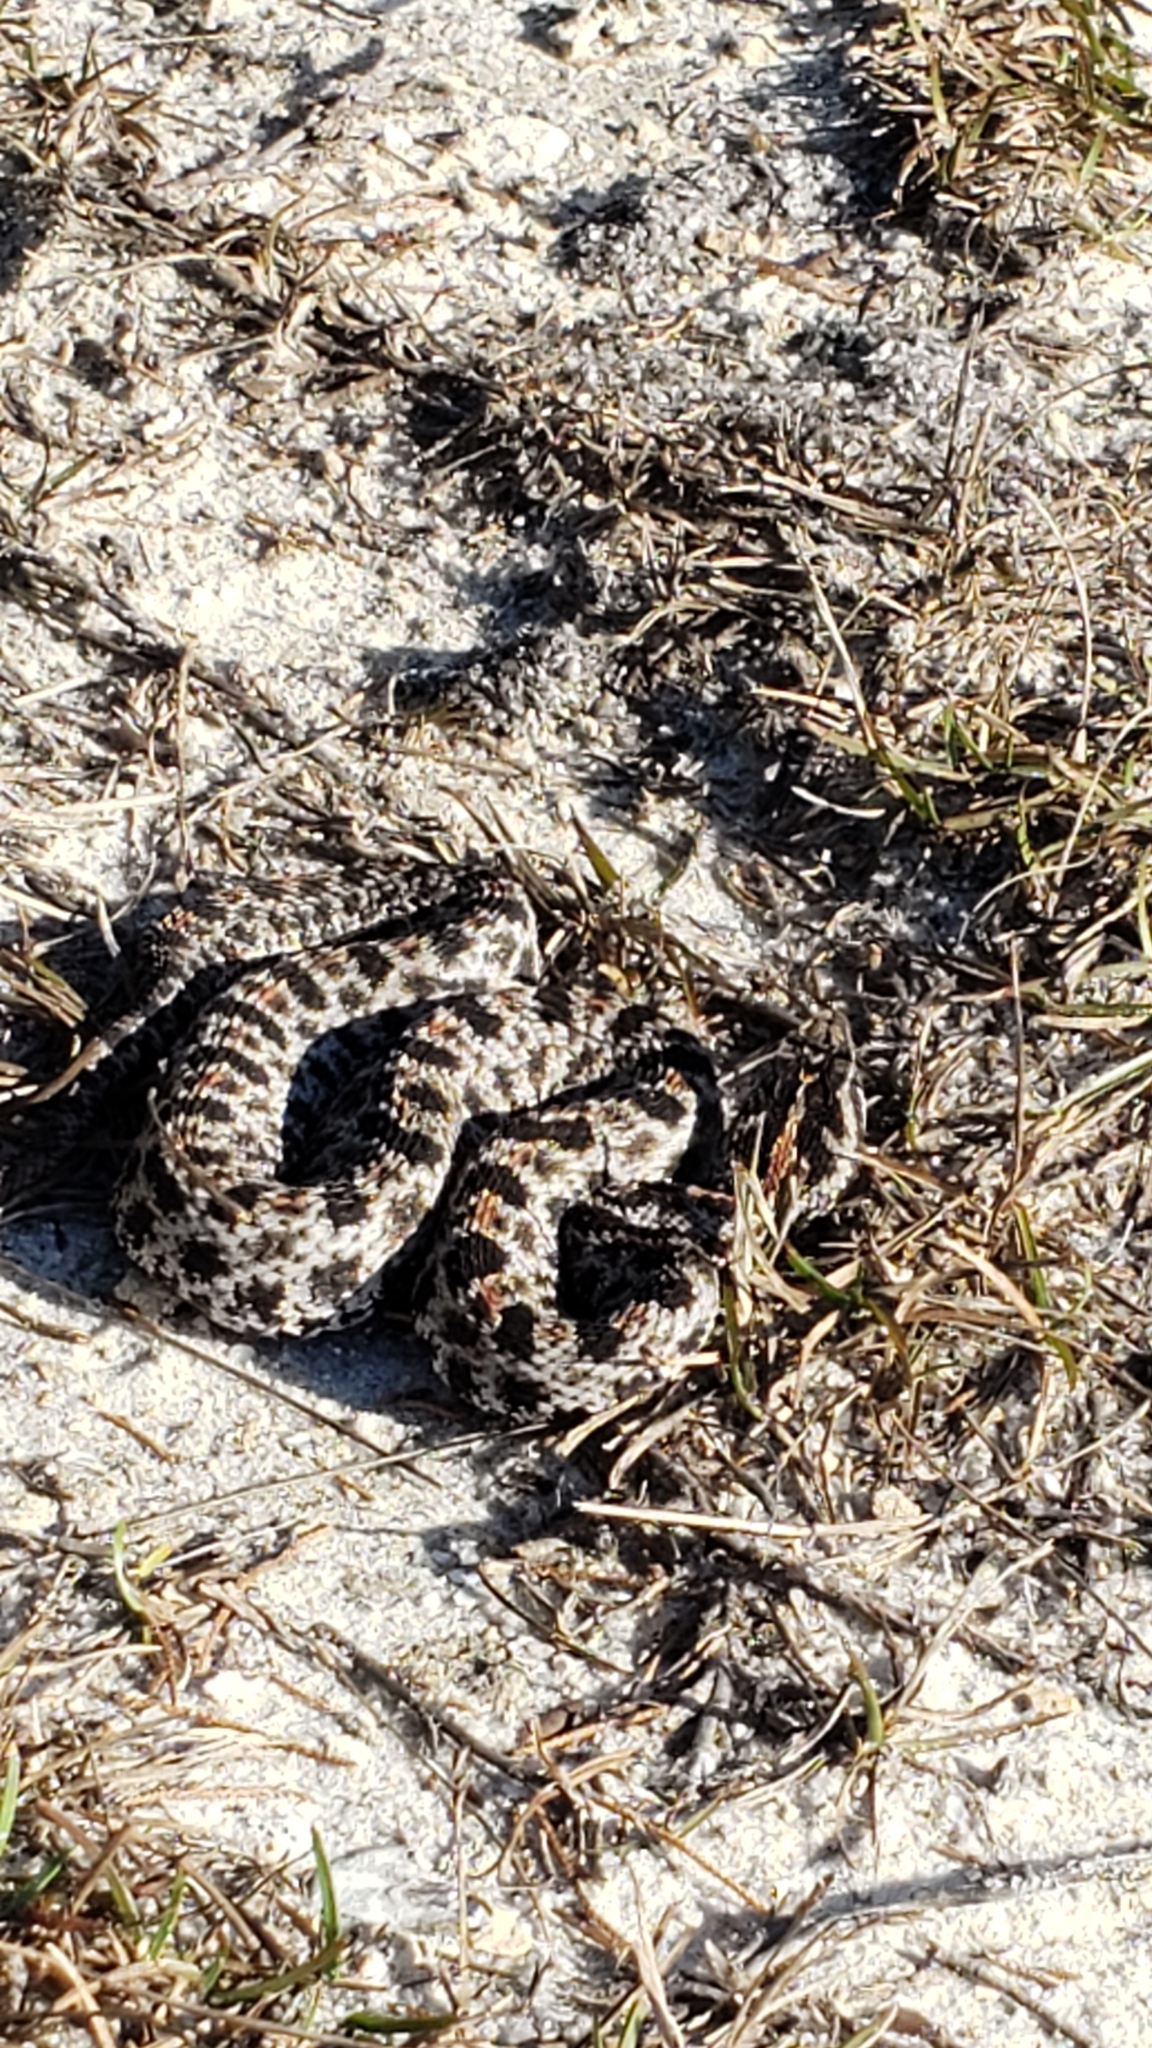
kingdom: Animalia
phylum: Chordata
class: Squamata
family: Viperidae
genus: Sistrurus
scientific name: Sistrurus miliarius
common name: Pygmy rattlesnake
